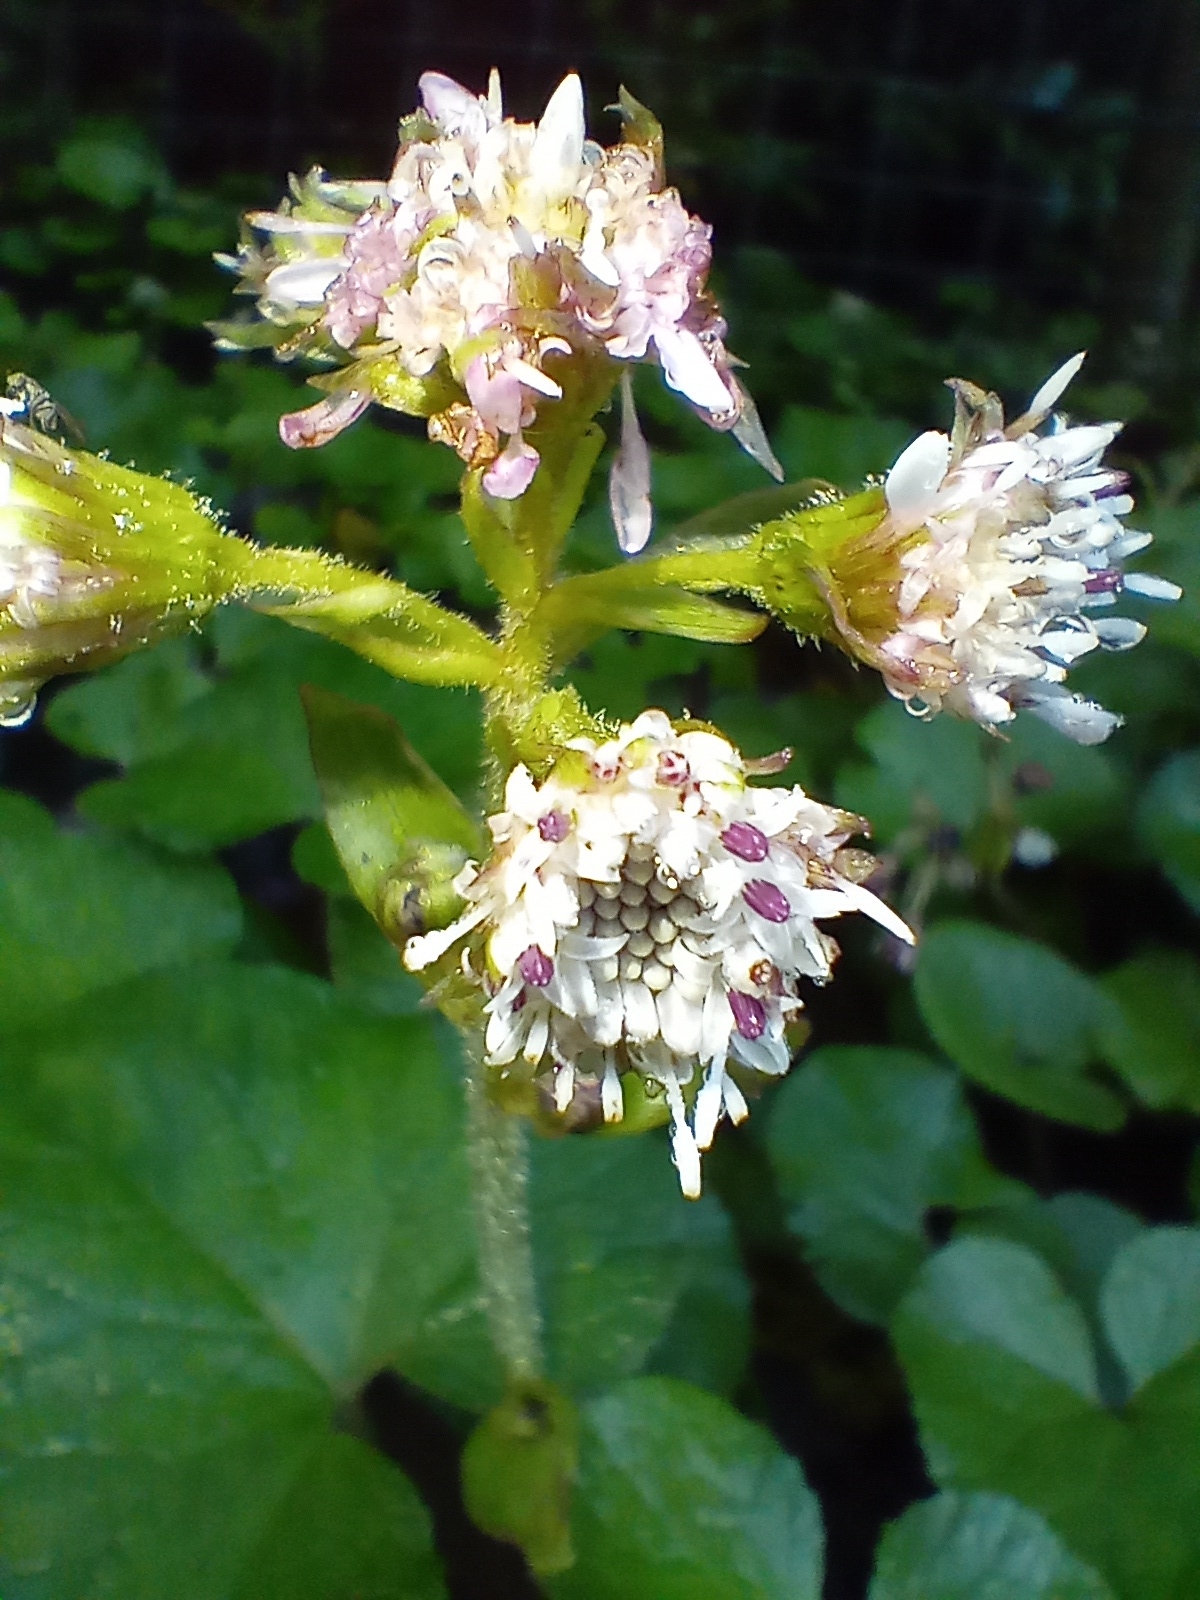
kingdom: Plantae
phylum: Tracheophyta
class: Magnoliopsida
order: Asterales
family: Asteraceae
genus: Petasites
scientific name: Petasites pyrenaicus
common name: Winter heliotrope
